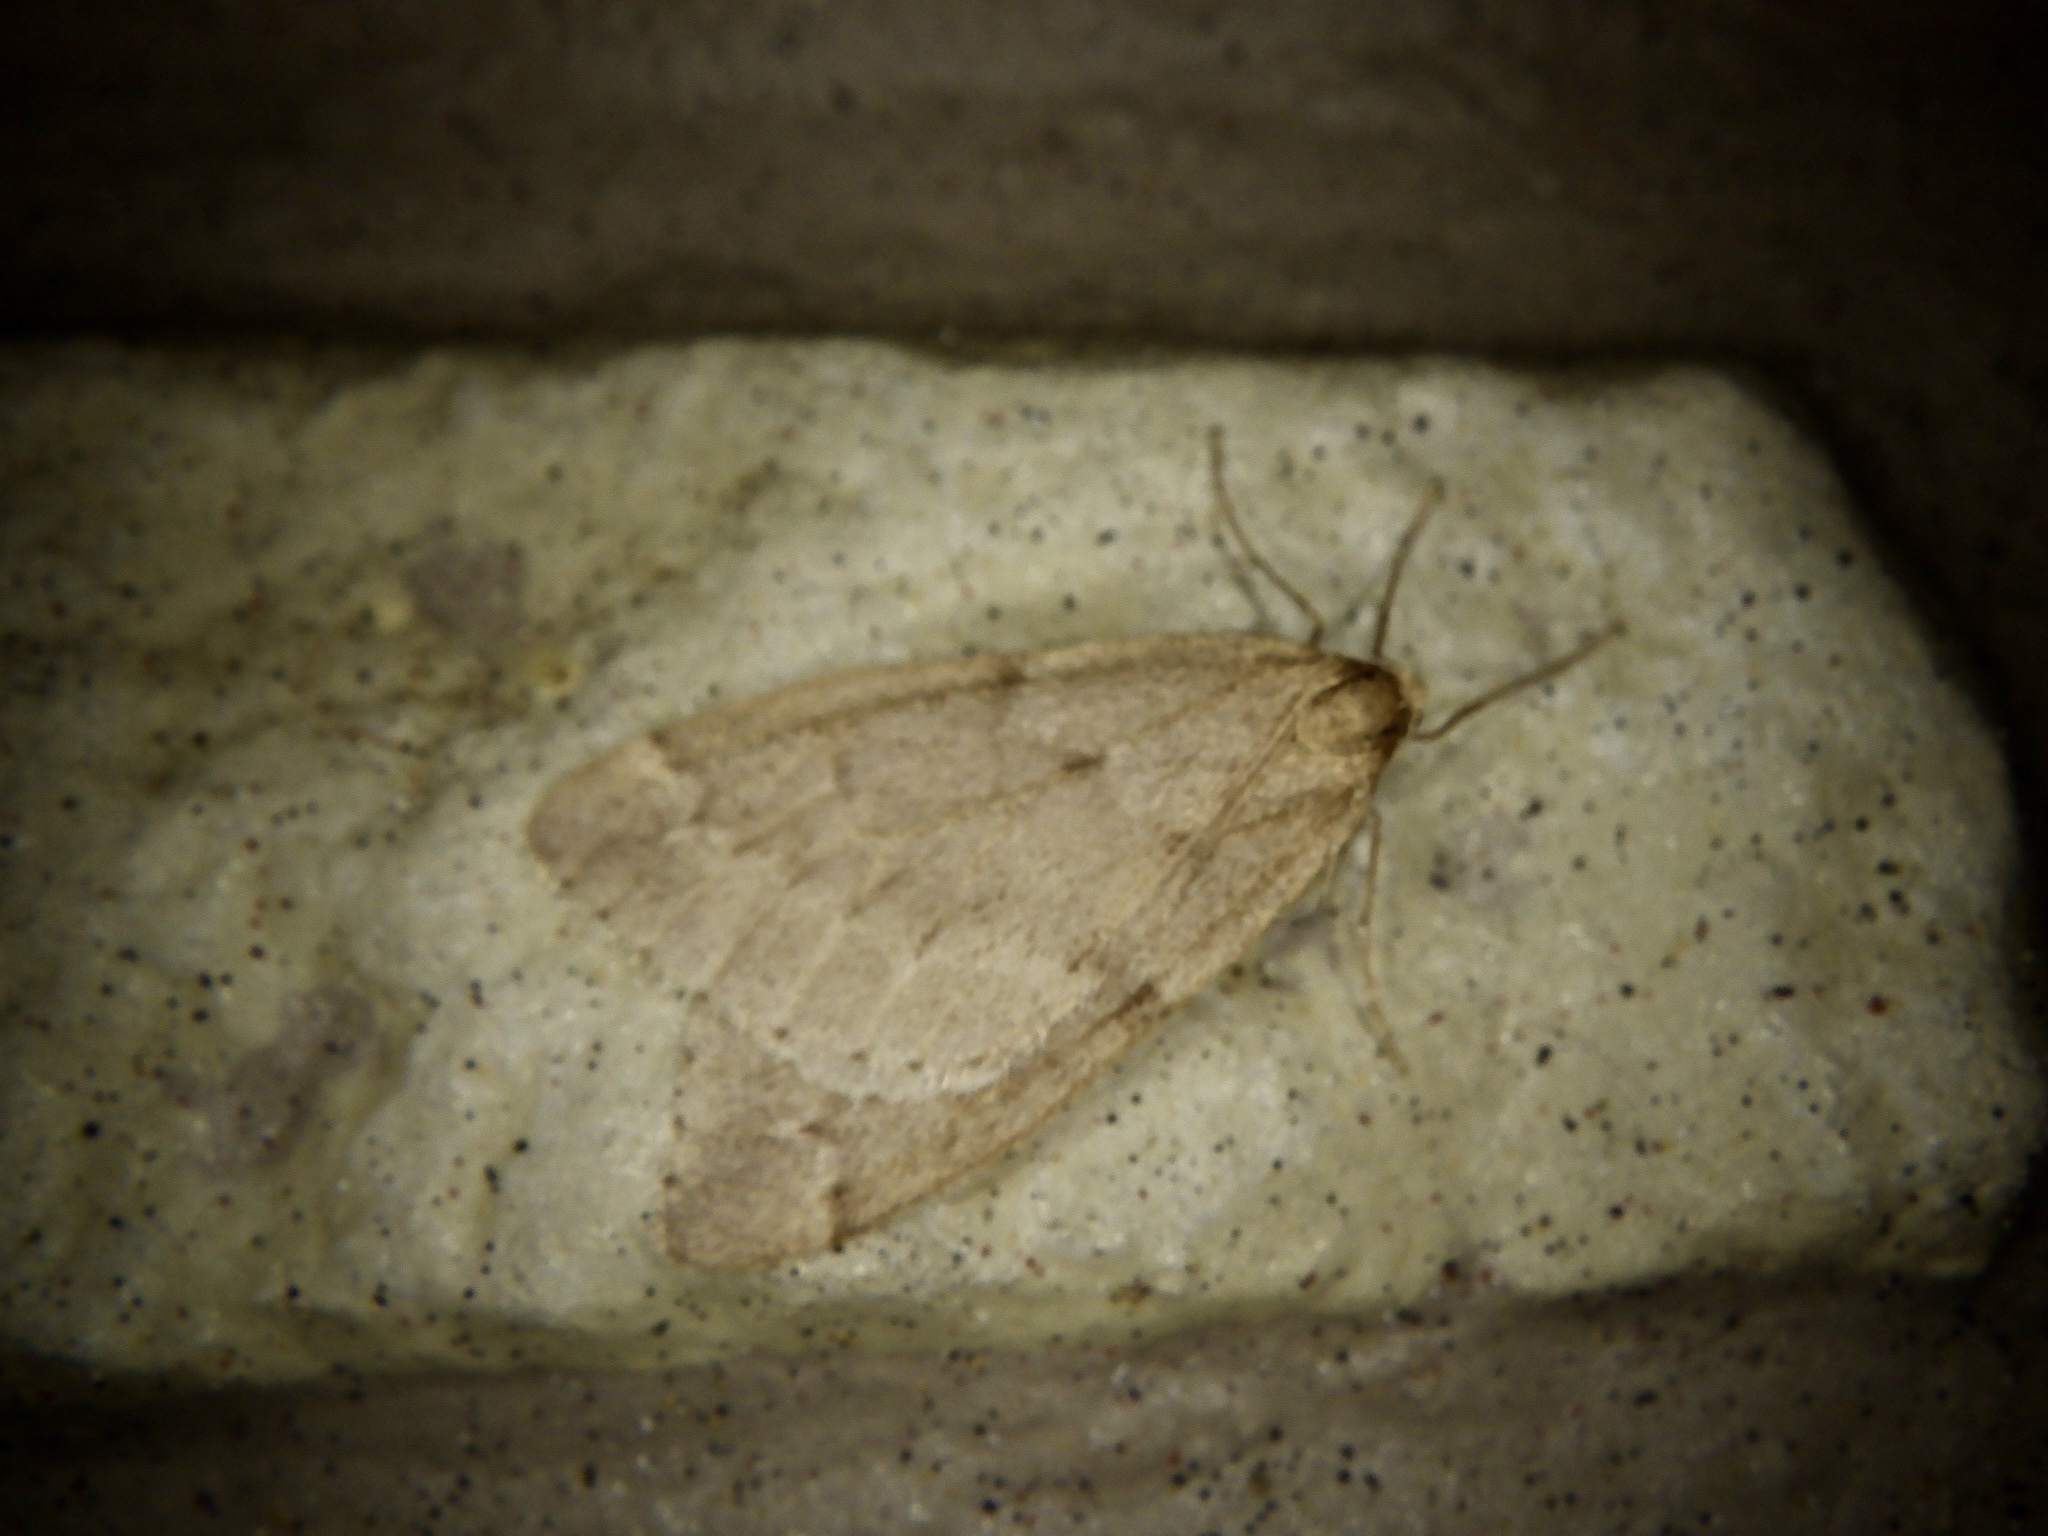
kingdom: Animalia
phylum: Arthropoda
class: Insecta
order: Lepidoptera
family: Geometridae
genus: Inurois
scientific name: Inurois tenuis
